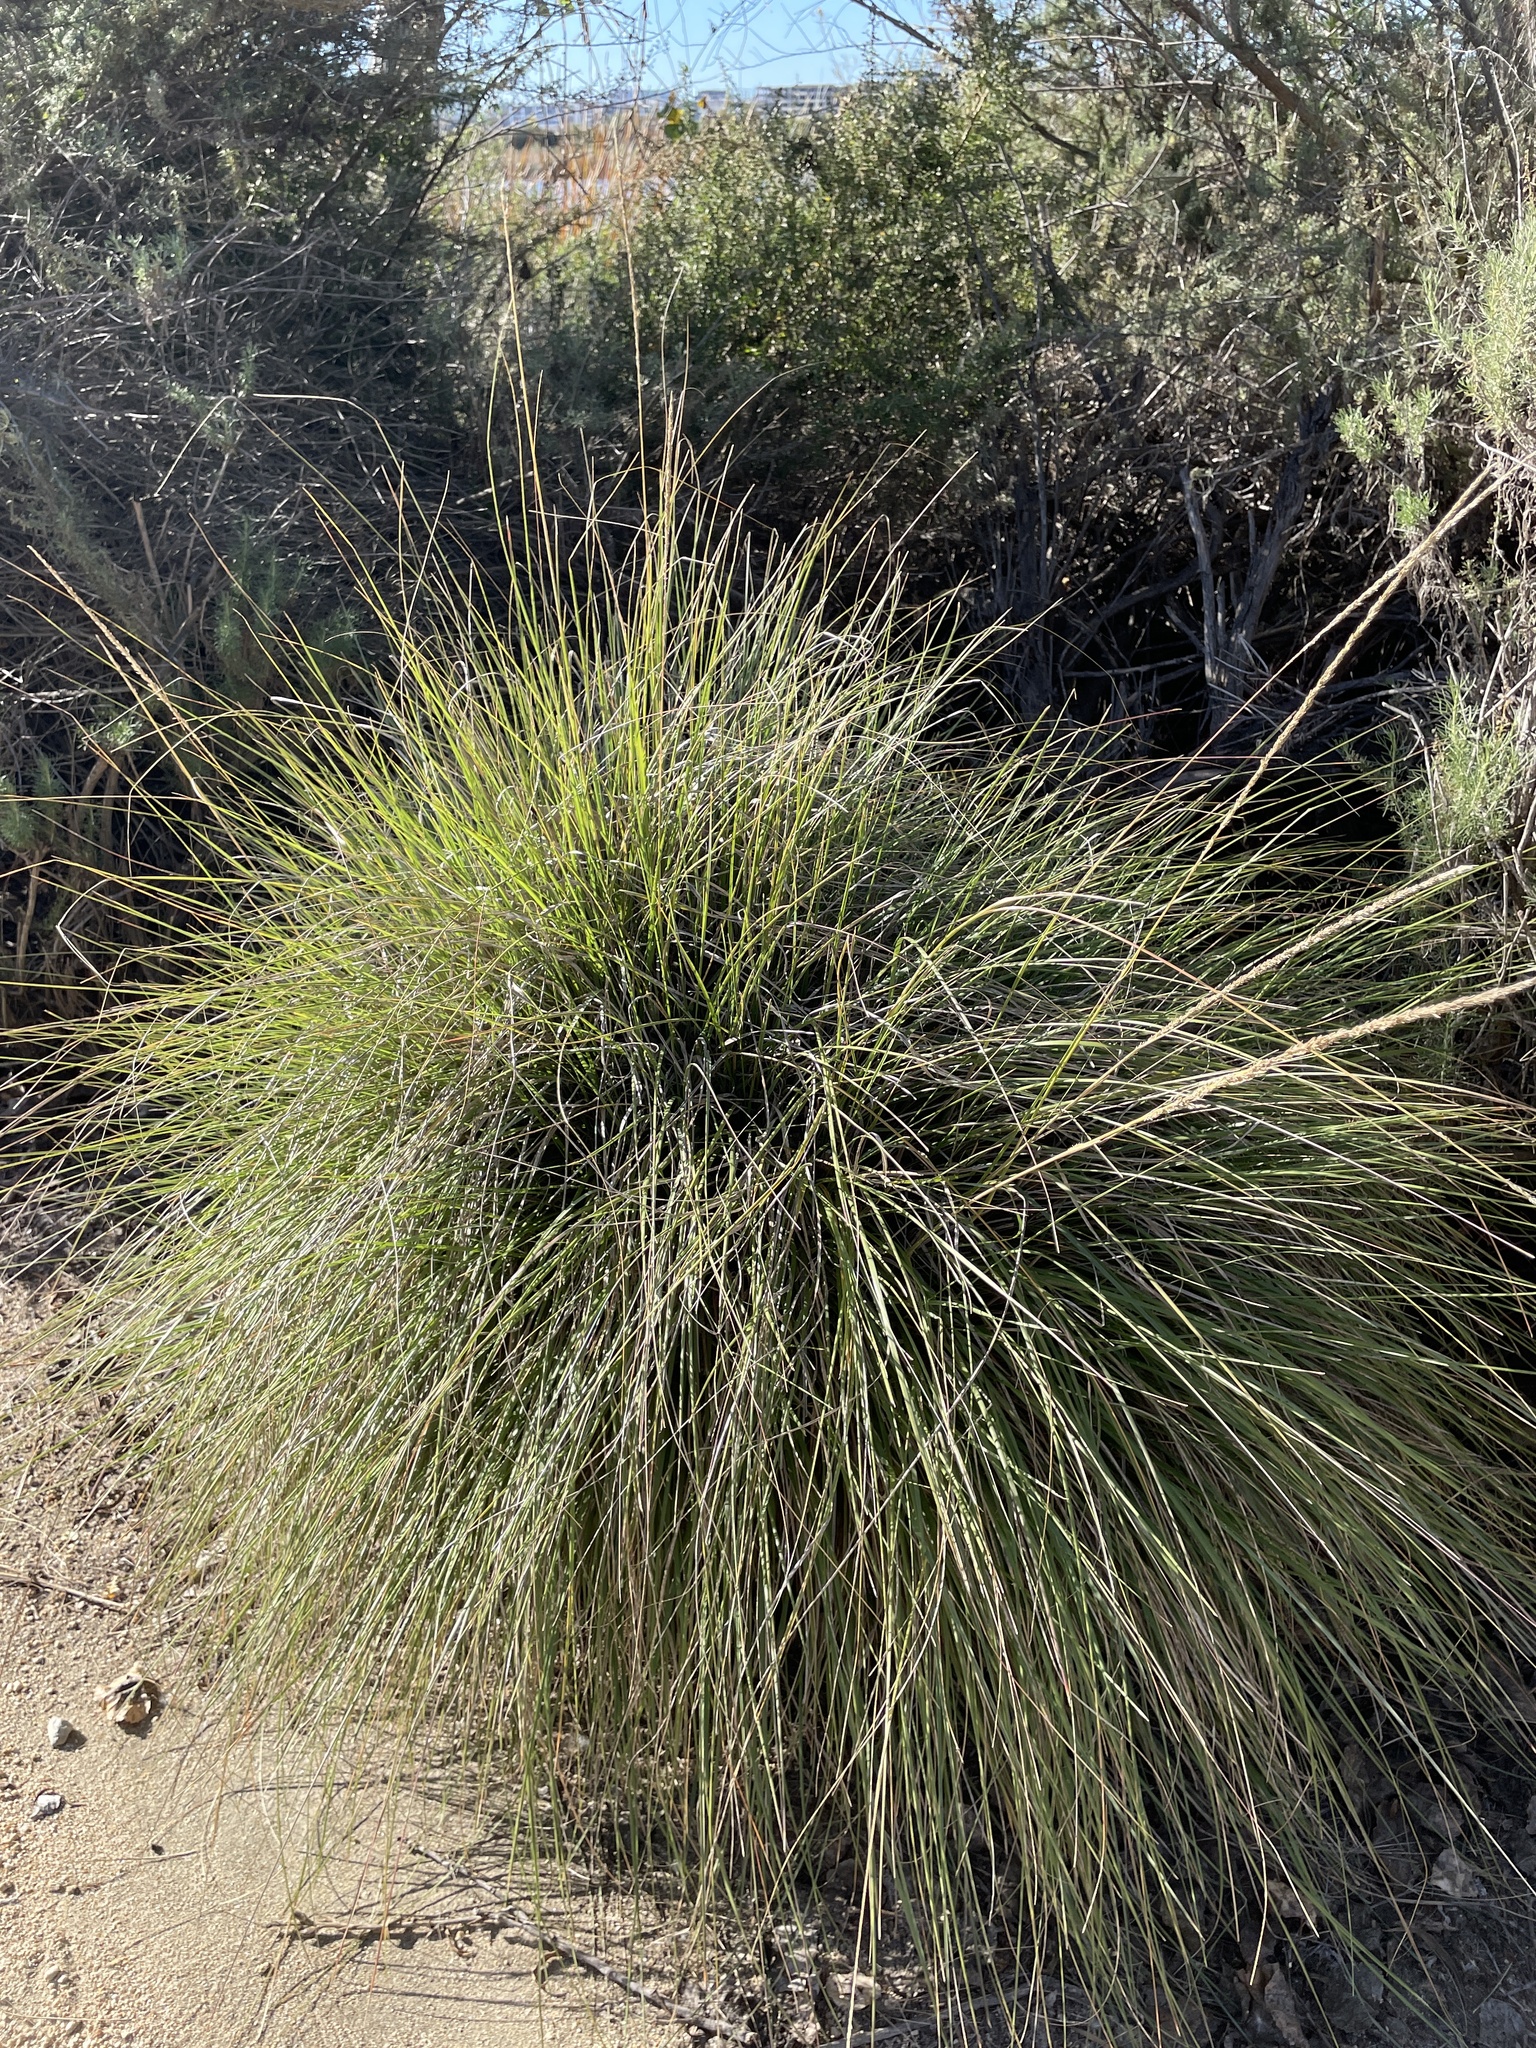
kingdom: Plantae
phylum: Tracheophyta
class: Liliopsida
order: Poales
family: Poaceae
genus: Muhlenbergia
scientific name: Muhlenbergia rigens
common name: Deer grass
